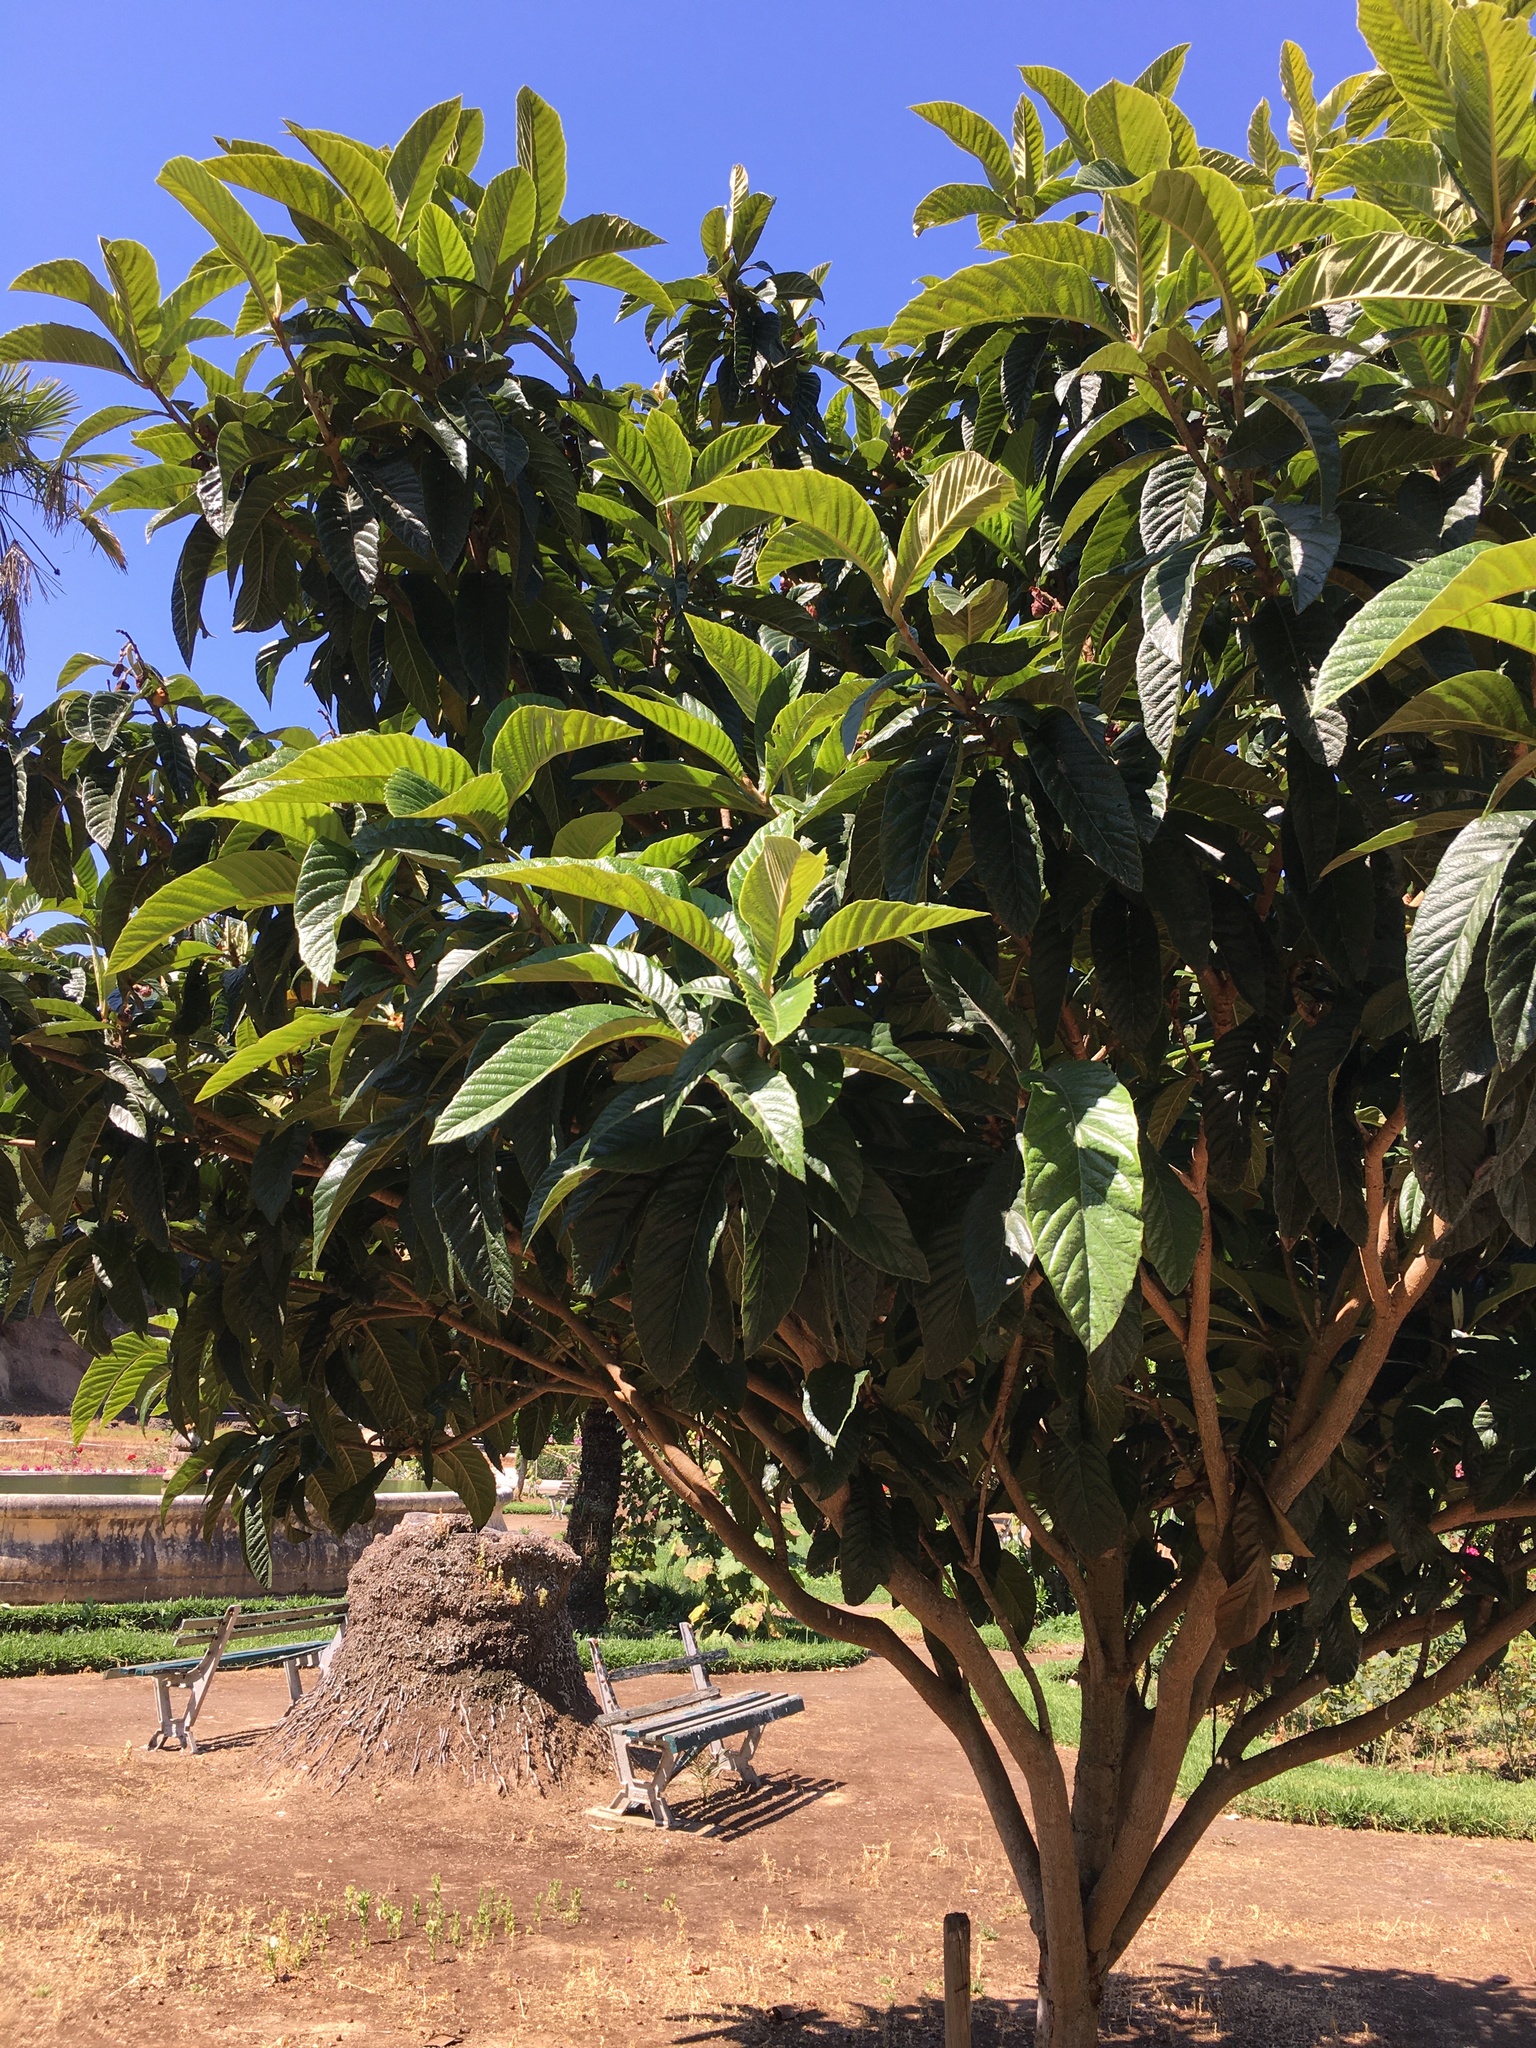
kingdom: Plantae
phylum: Tracheophyta
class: Magnoliopsida
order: Rosales
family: Rosaceae
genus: Rhaphiolepis
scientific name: Rhaphiolepis bibas
